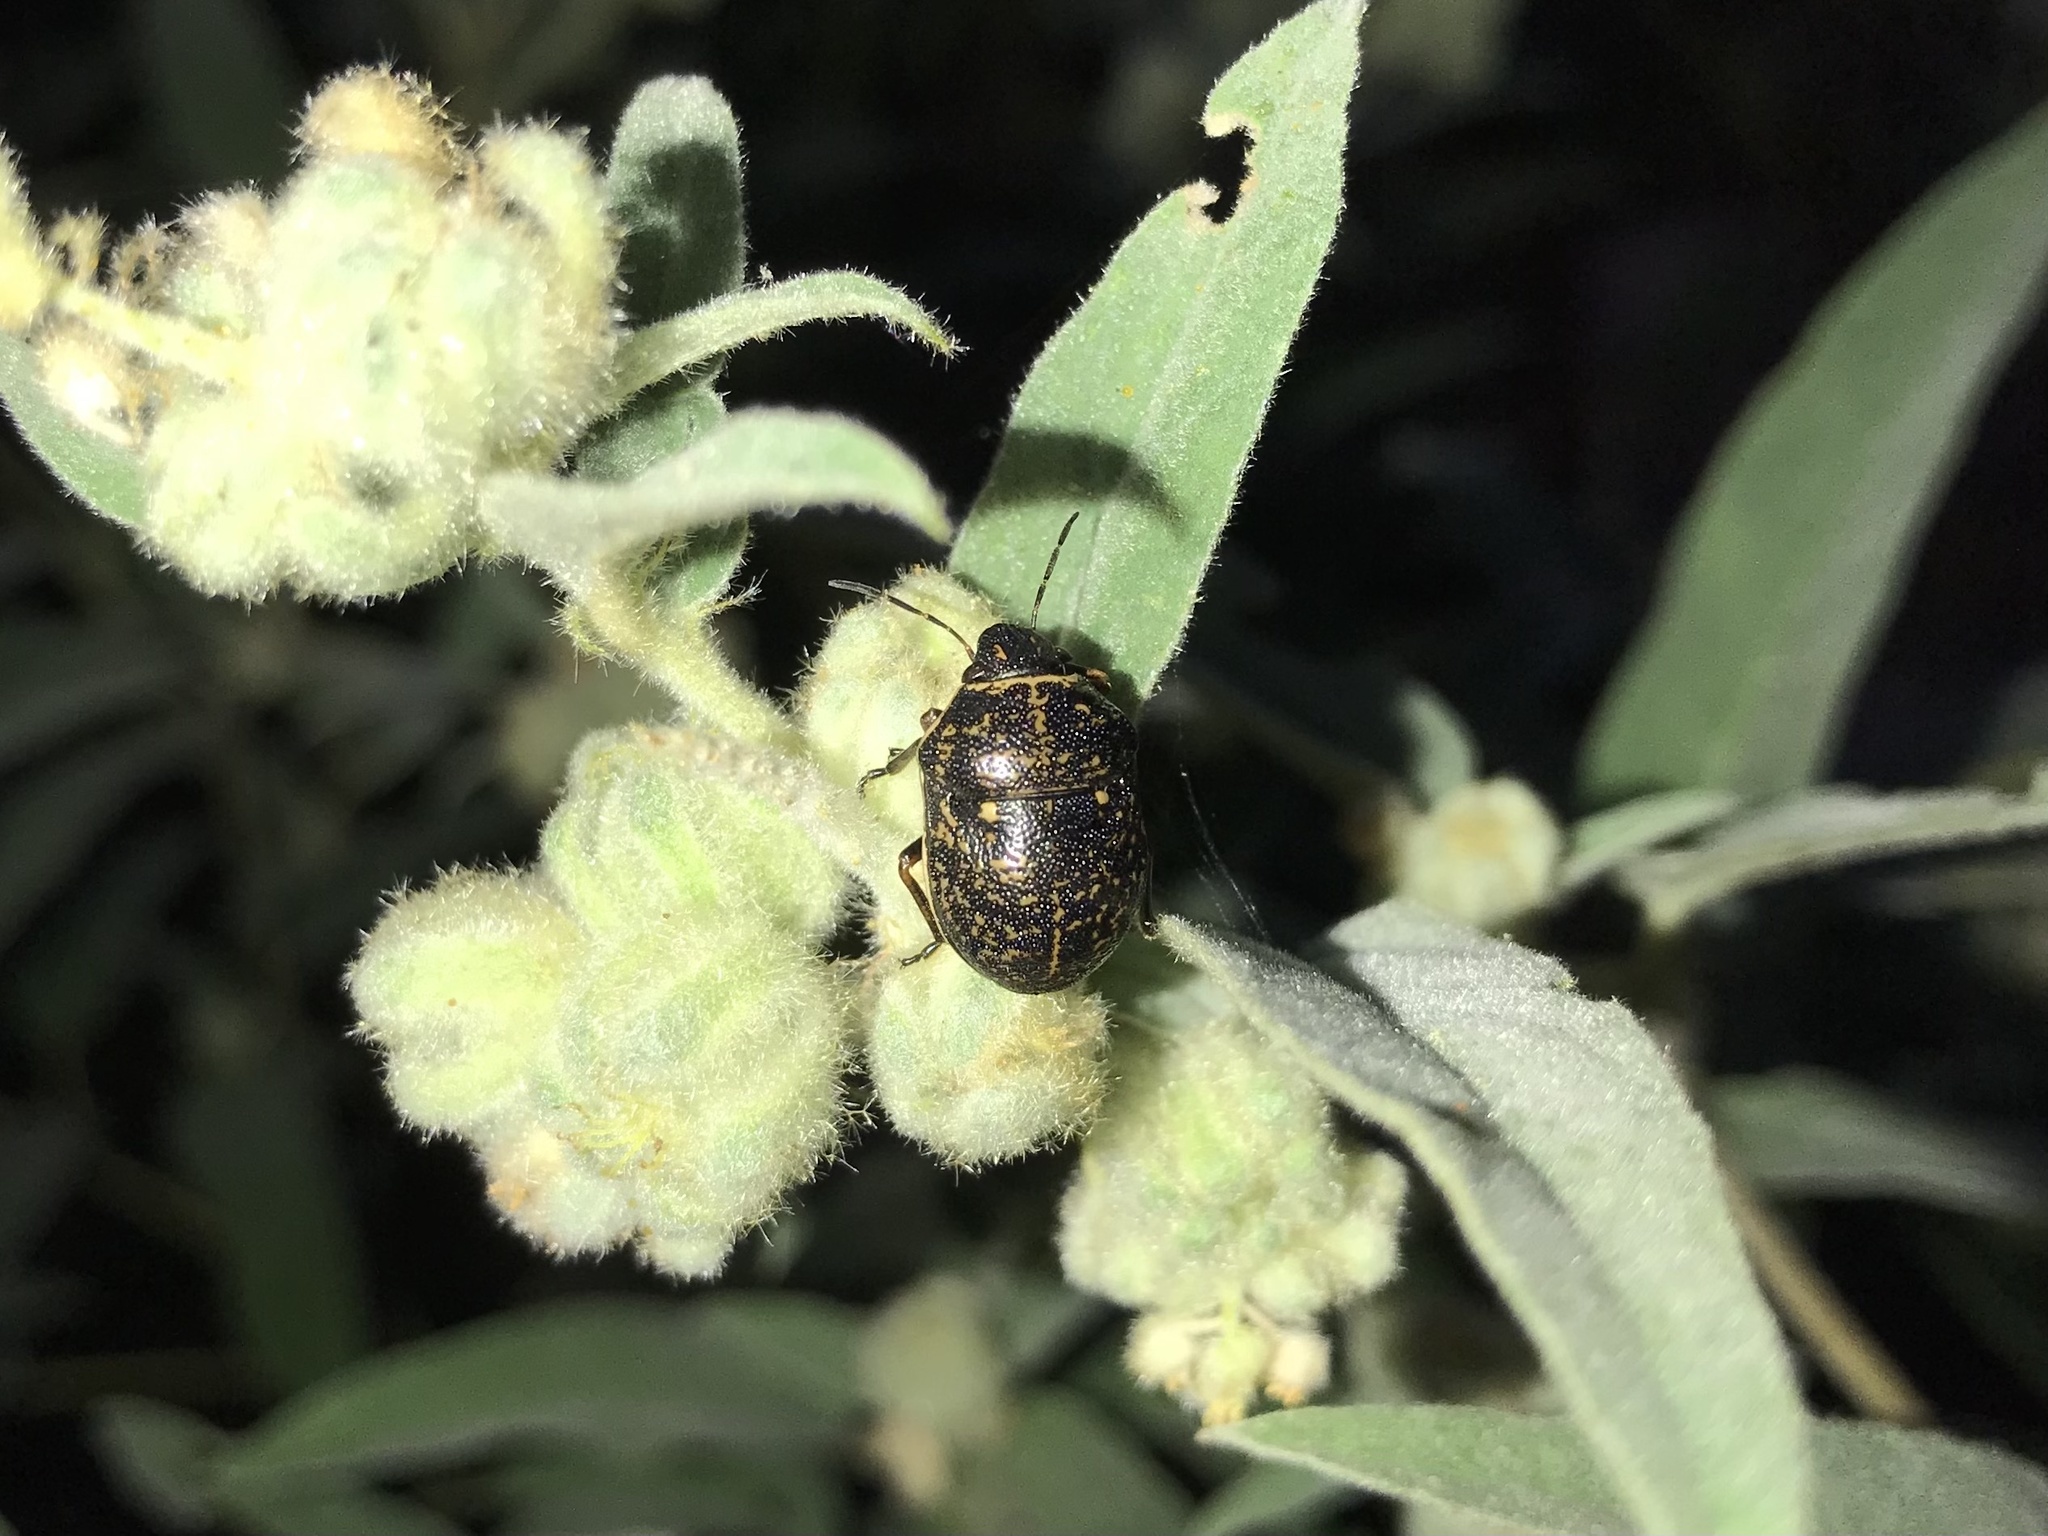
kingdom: Animalia
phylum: Arthropoda
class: Insecta
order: Hemiptera
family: Scutelleridae
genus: Orsilochides
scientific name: Orsilochides guttata
